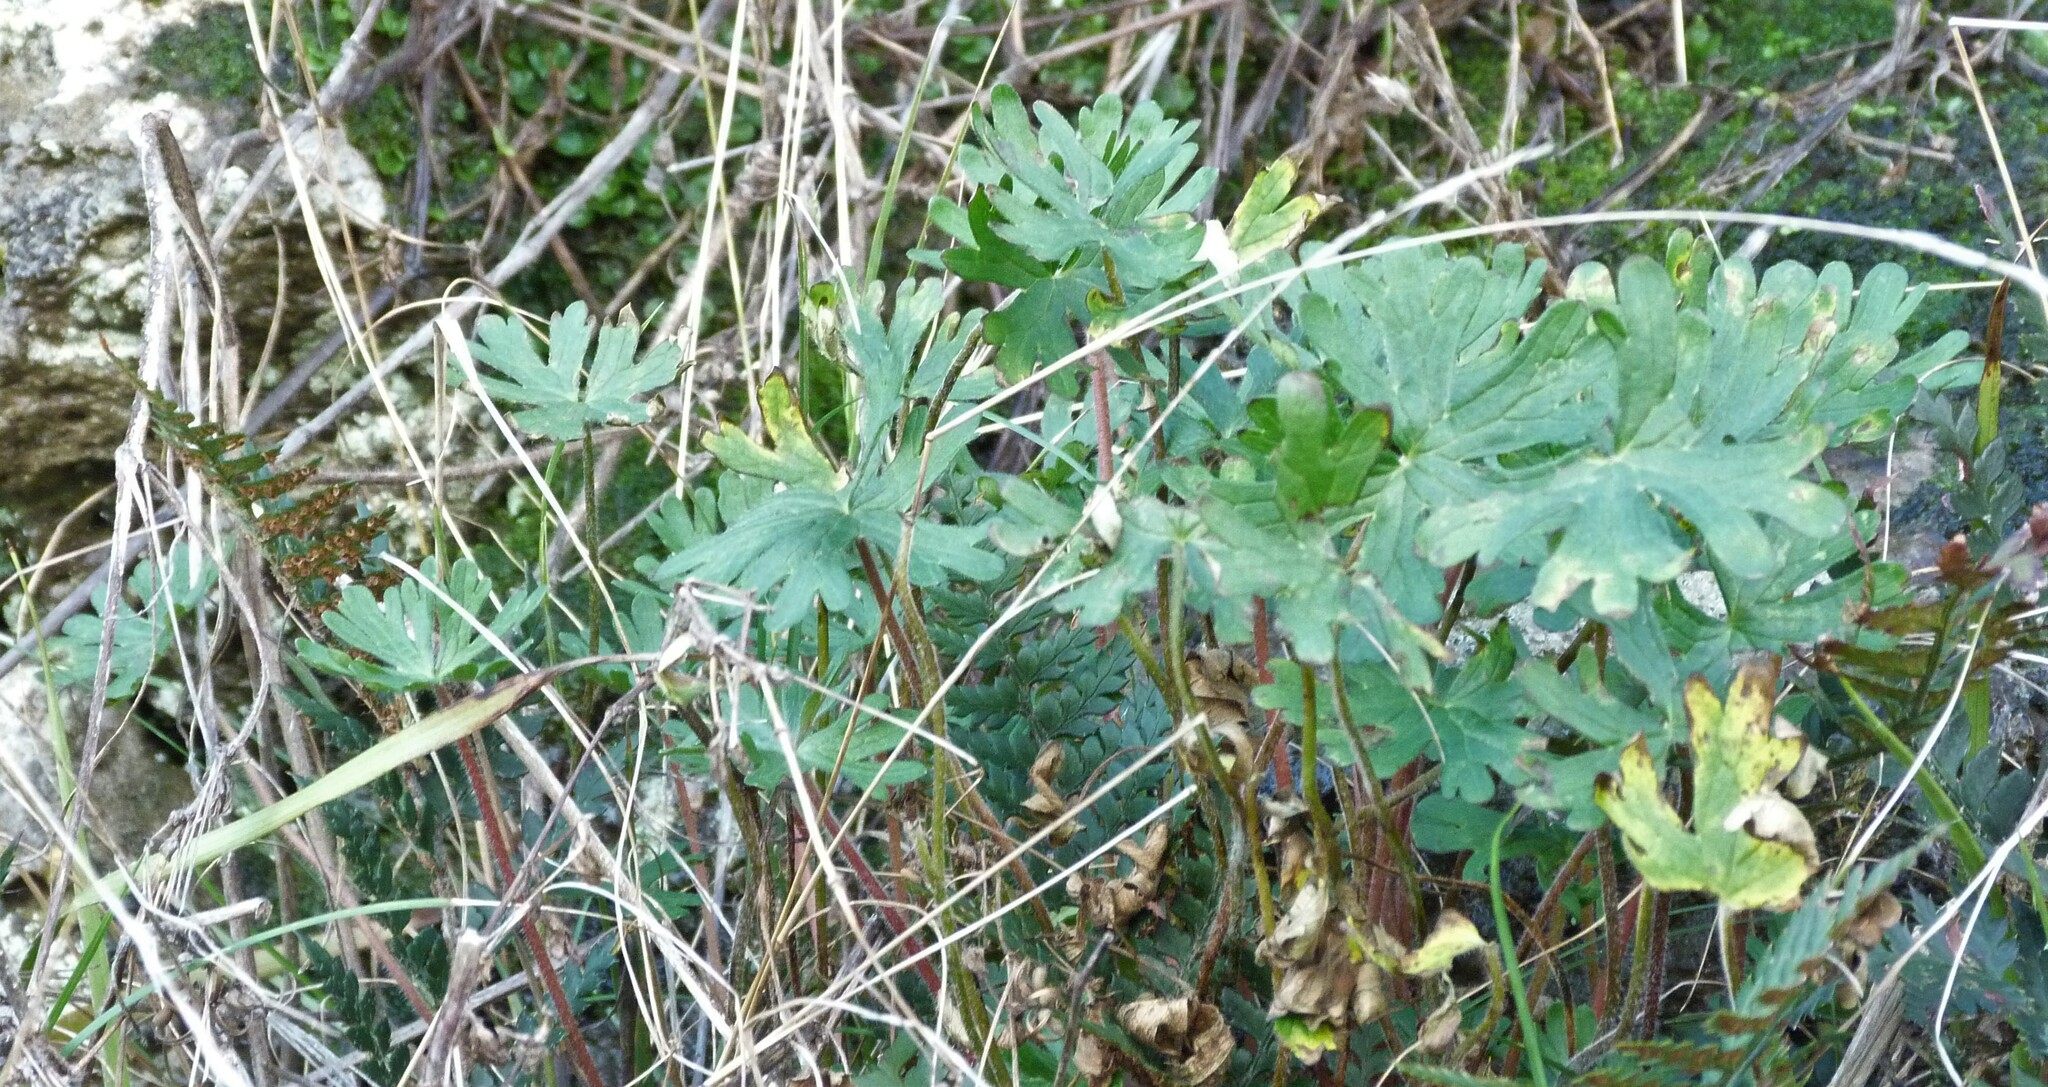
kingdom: Plantae
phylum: Tracheophyta
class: Magnoliopsida
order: Geraniales
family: Geraniaceae
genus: Geranium
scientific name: Geranium retrorsum
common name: New zealand geranium
